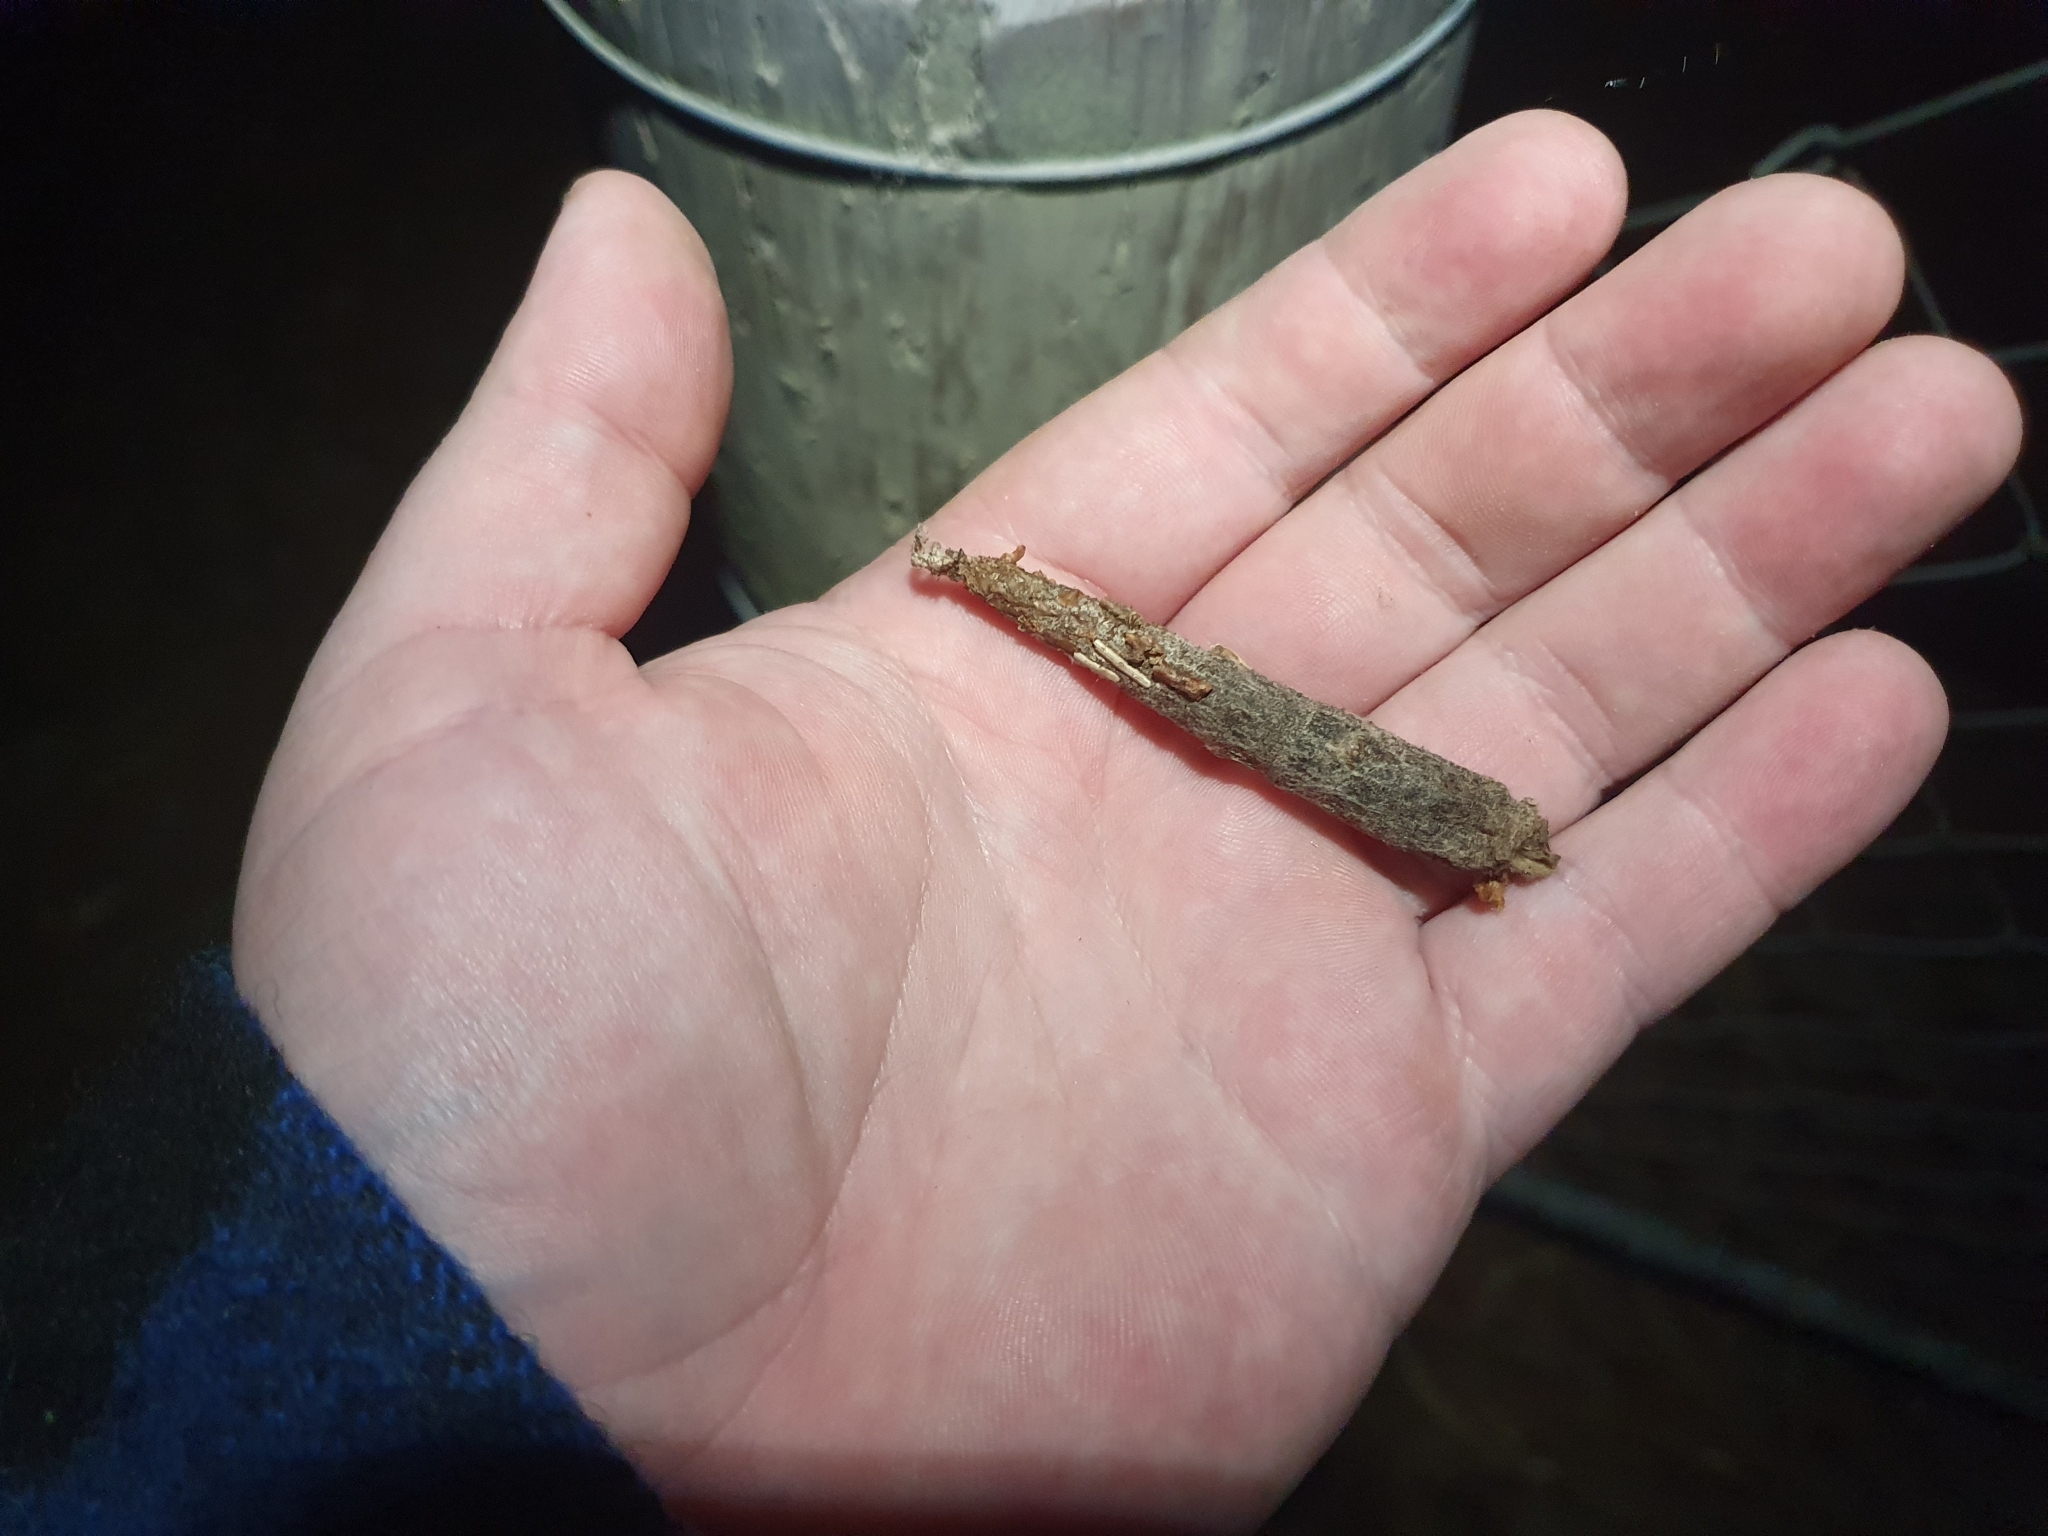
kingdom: Animalia
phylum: Arthropoda
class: Insecta
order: Lepidoptera
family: Psychidae
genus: Liothula
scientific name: Liothula omnivora
